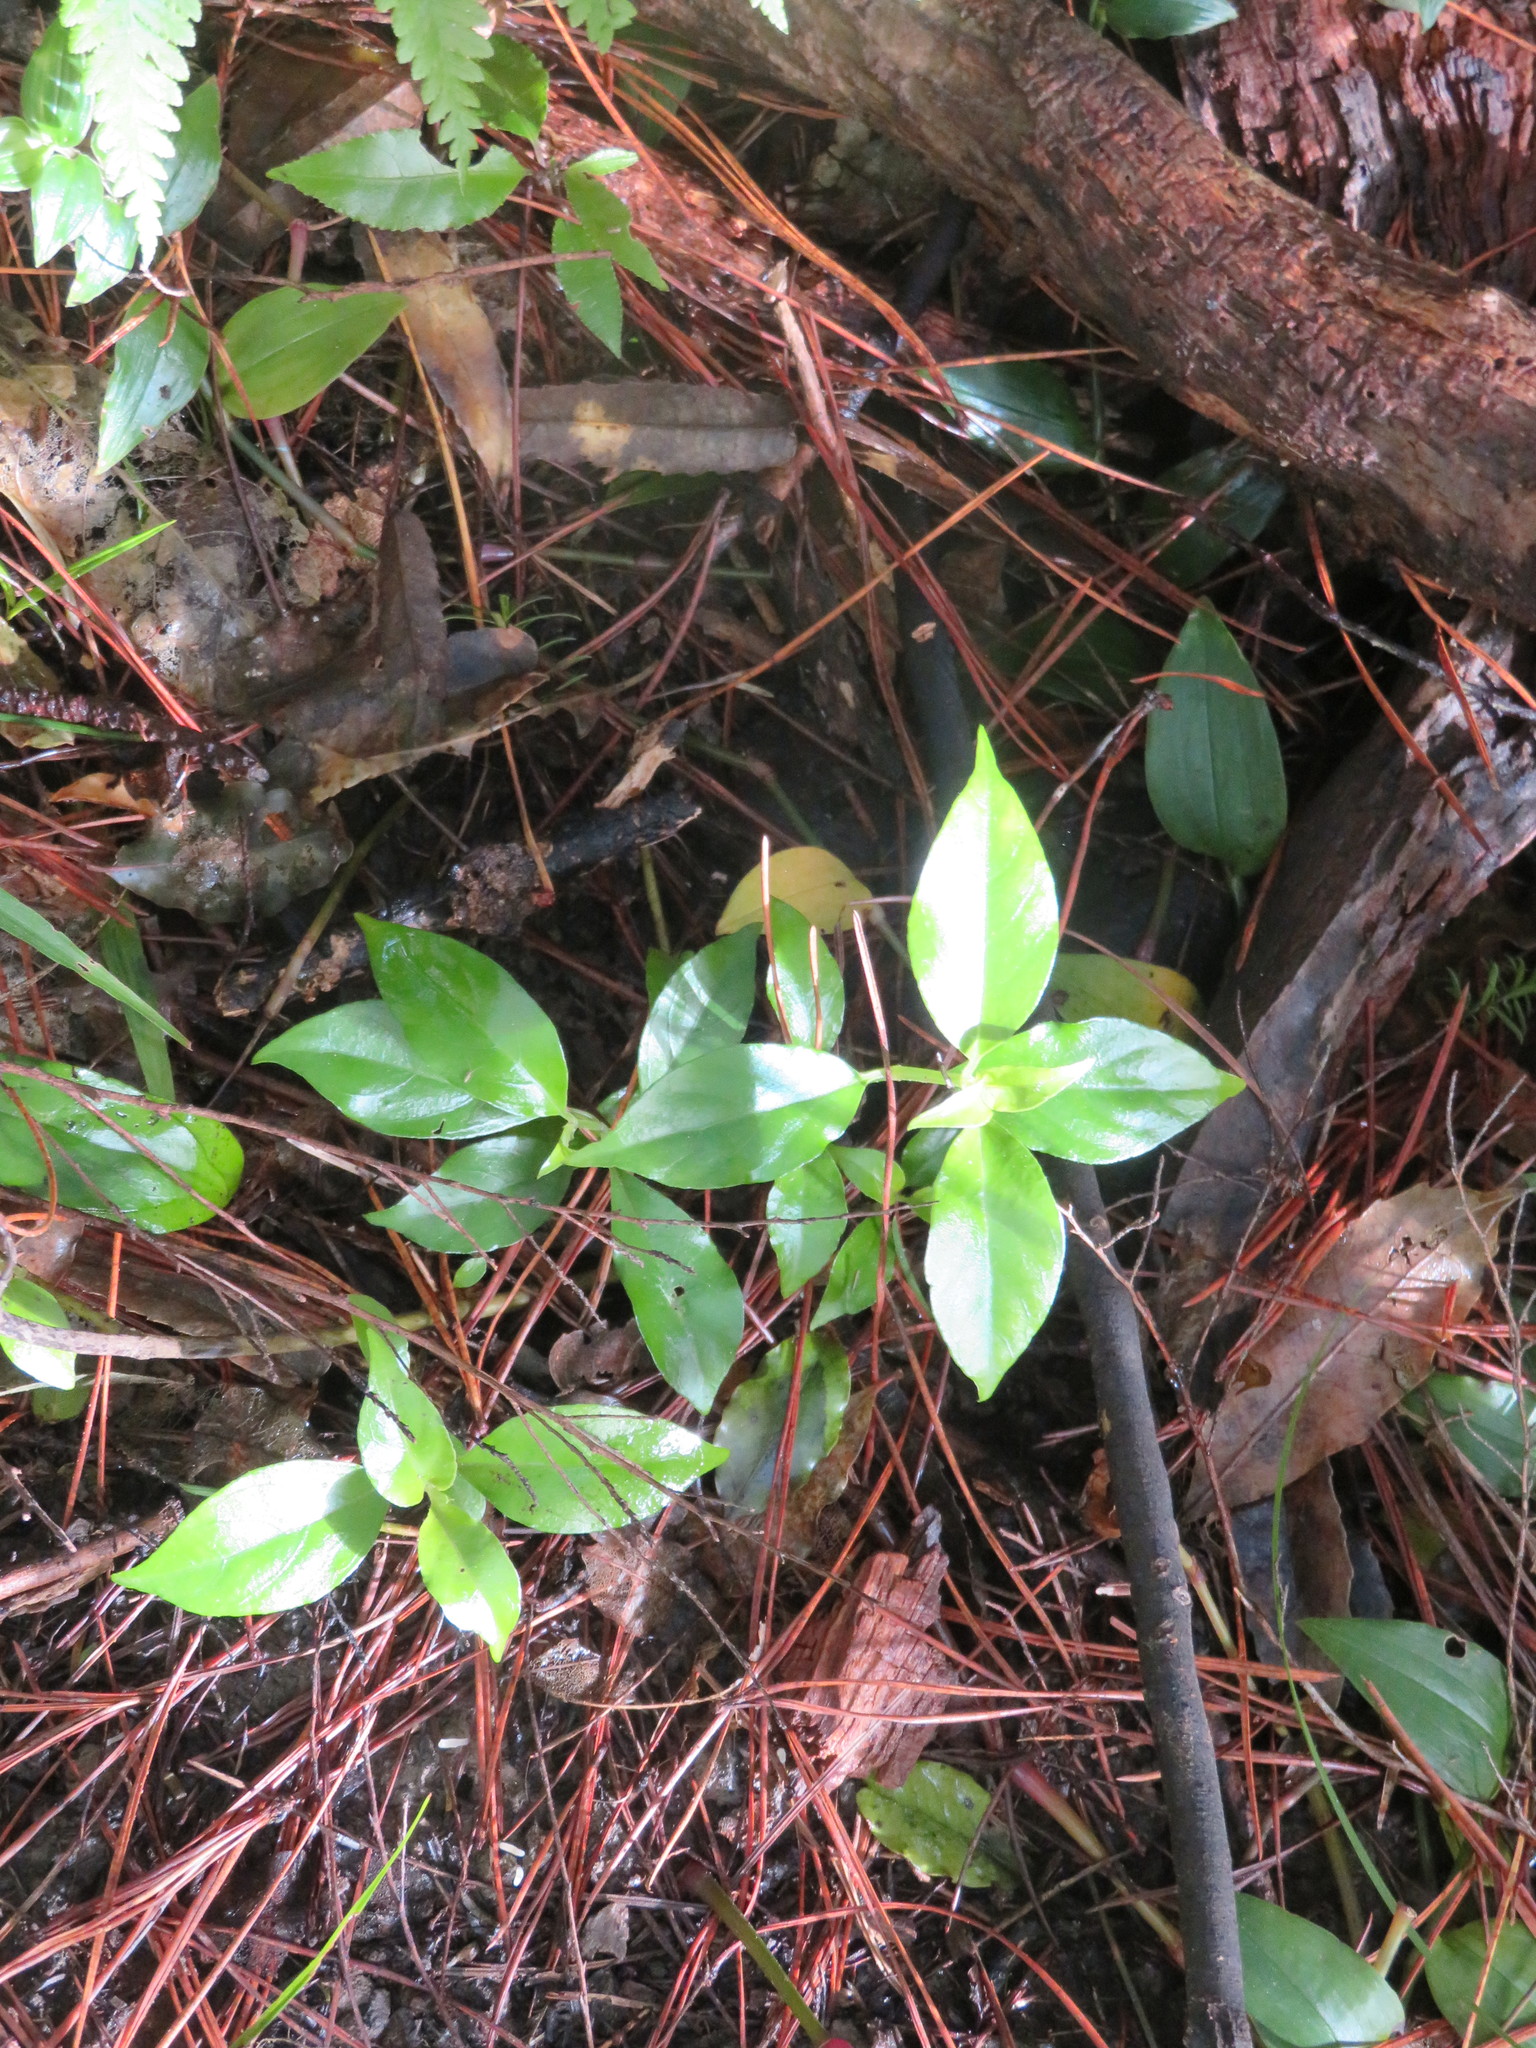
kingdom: Plantae
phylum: Tracheophyta
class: Magnoliopsida
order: Gentianales
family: Loganiaceae
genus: Geniostoma
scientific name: Geniostoma ligustrifolium
